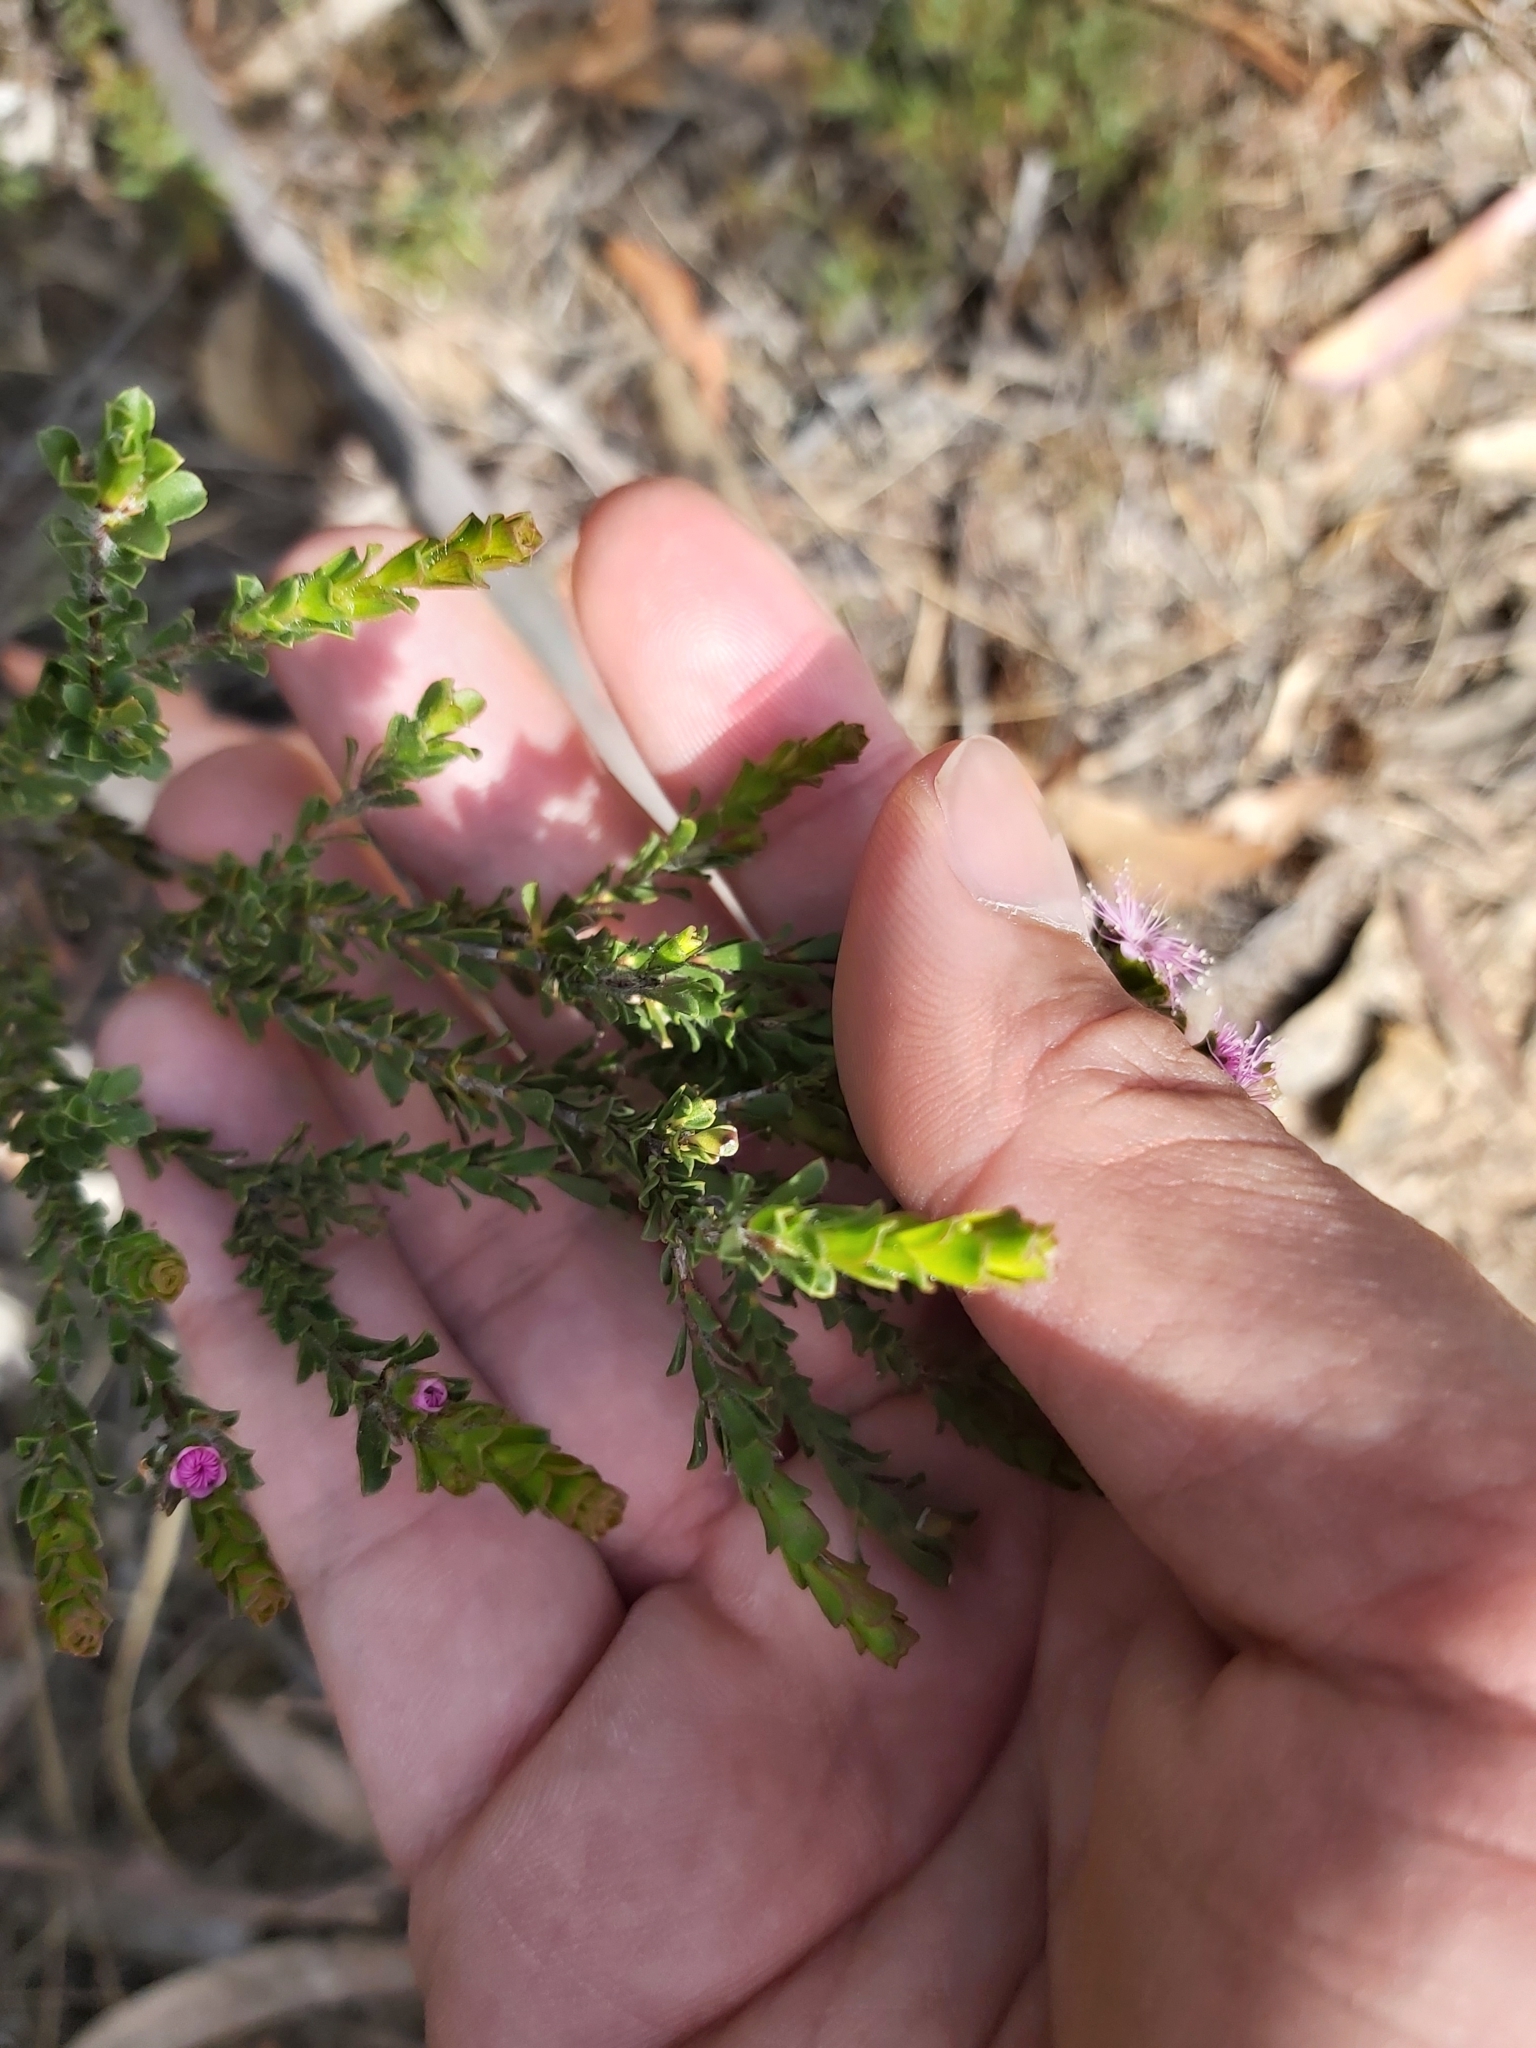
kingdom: Plantae
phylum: Tracheophyta
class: Magnoliopsida
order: Myrtales
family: Myrtaceae
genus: Kunzea
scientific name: Kunzea capitata
